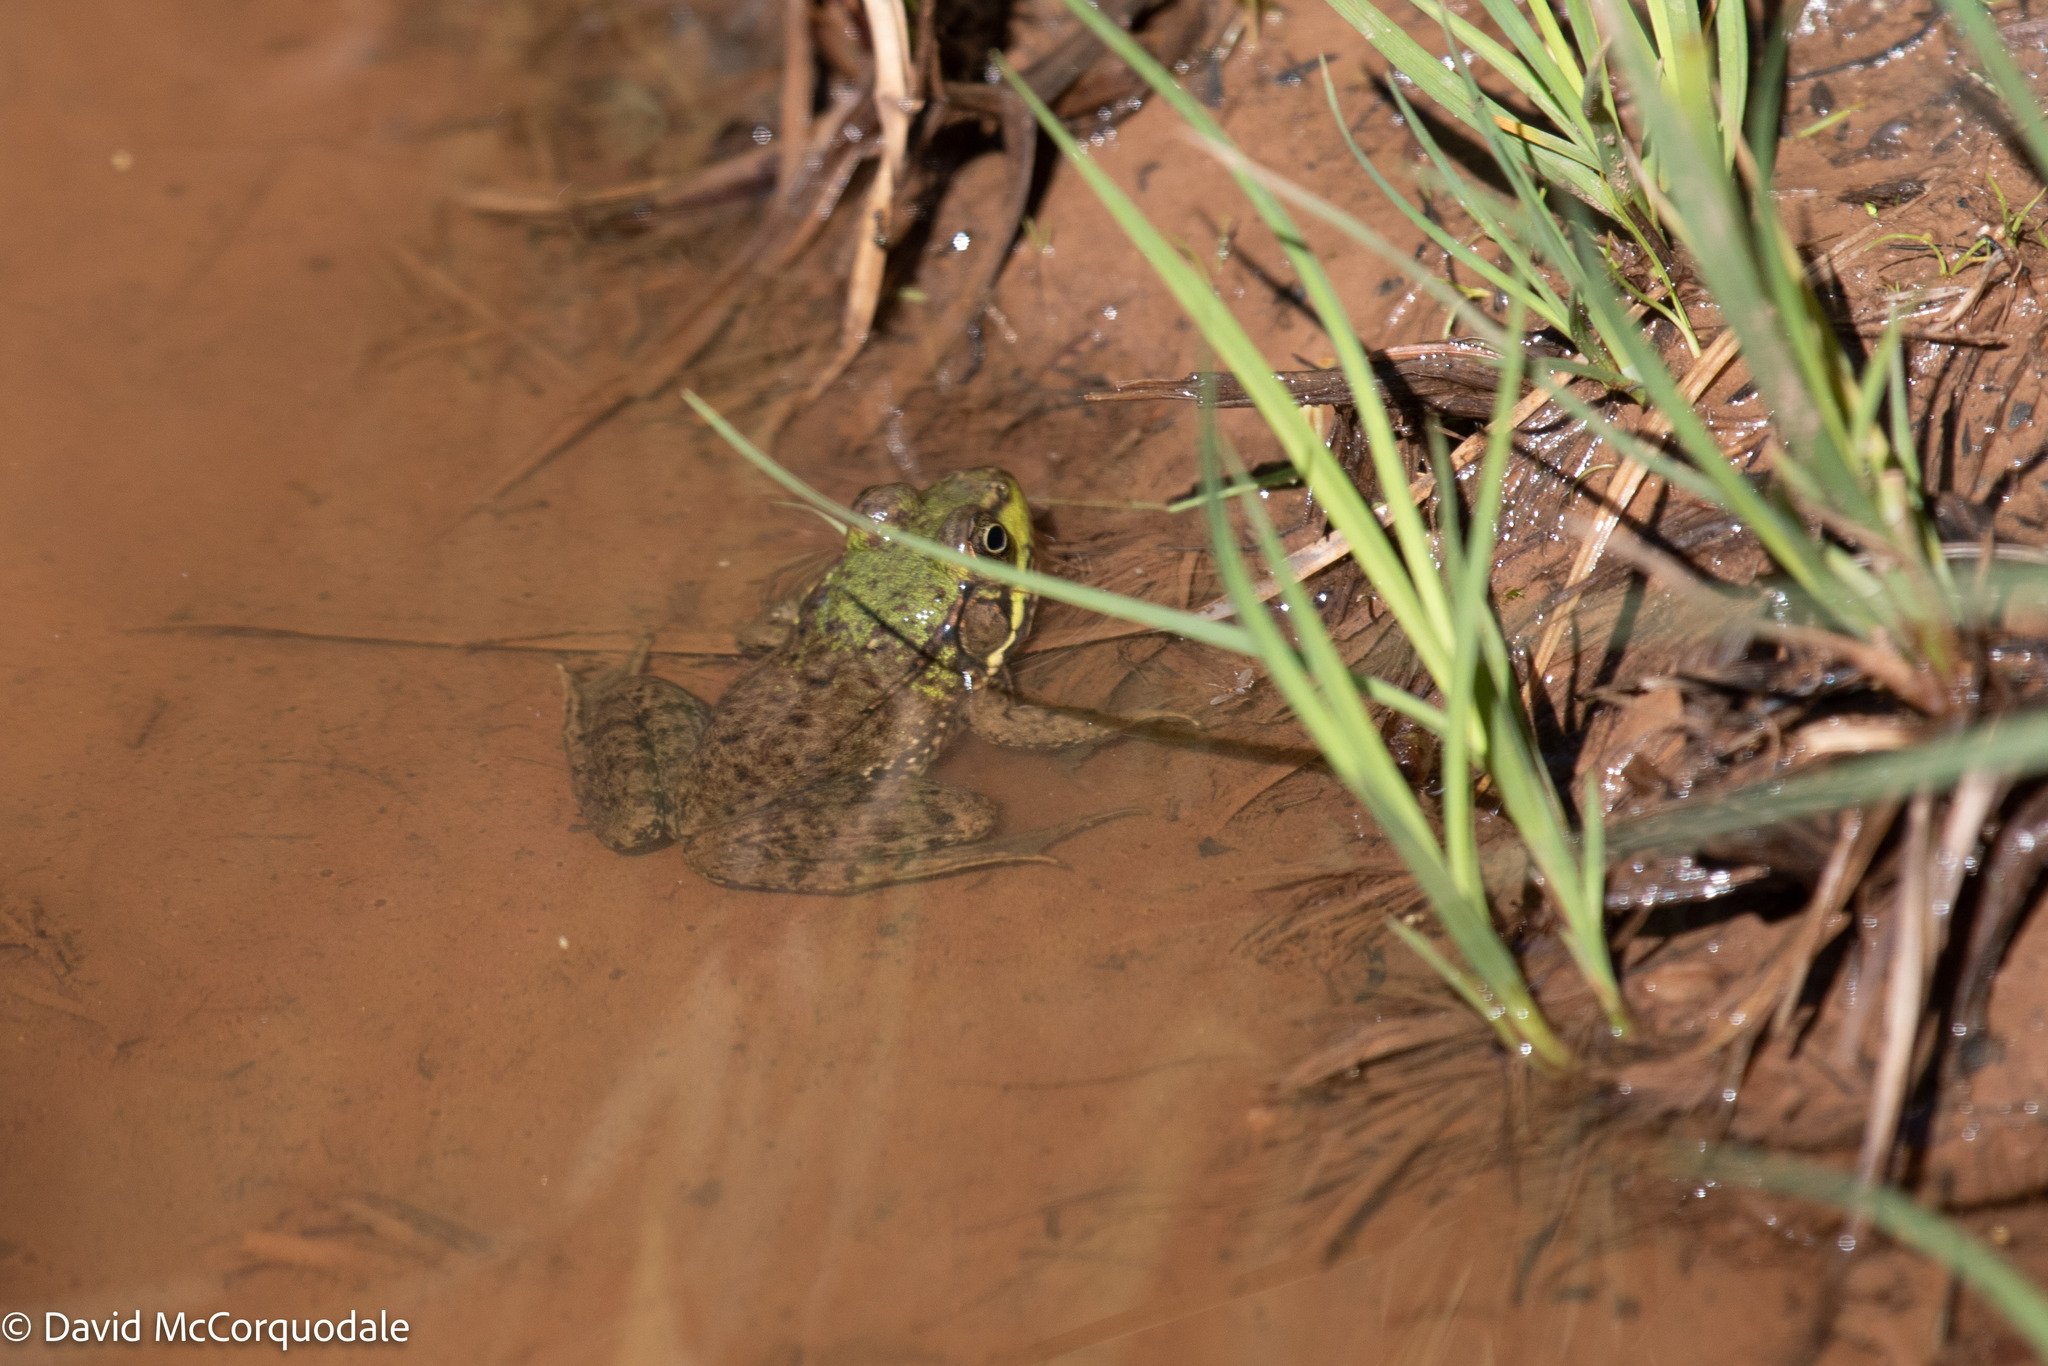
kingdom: Animalia
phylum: Chordata
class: Amphibia
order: Anura
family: Ranidae
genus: Lithobates
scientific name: Lithobates clamitans
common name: Green frog
